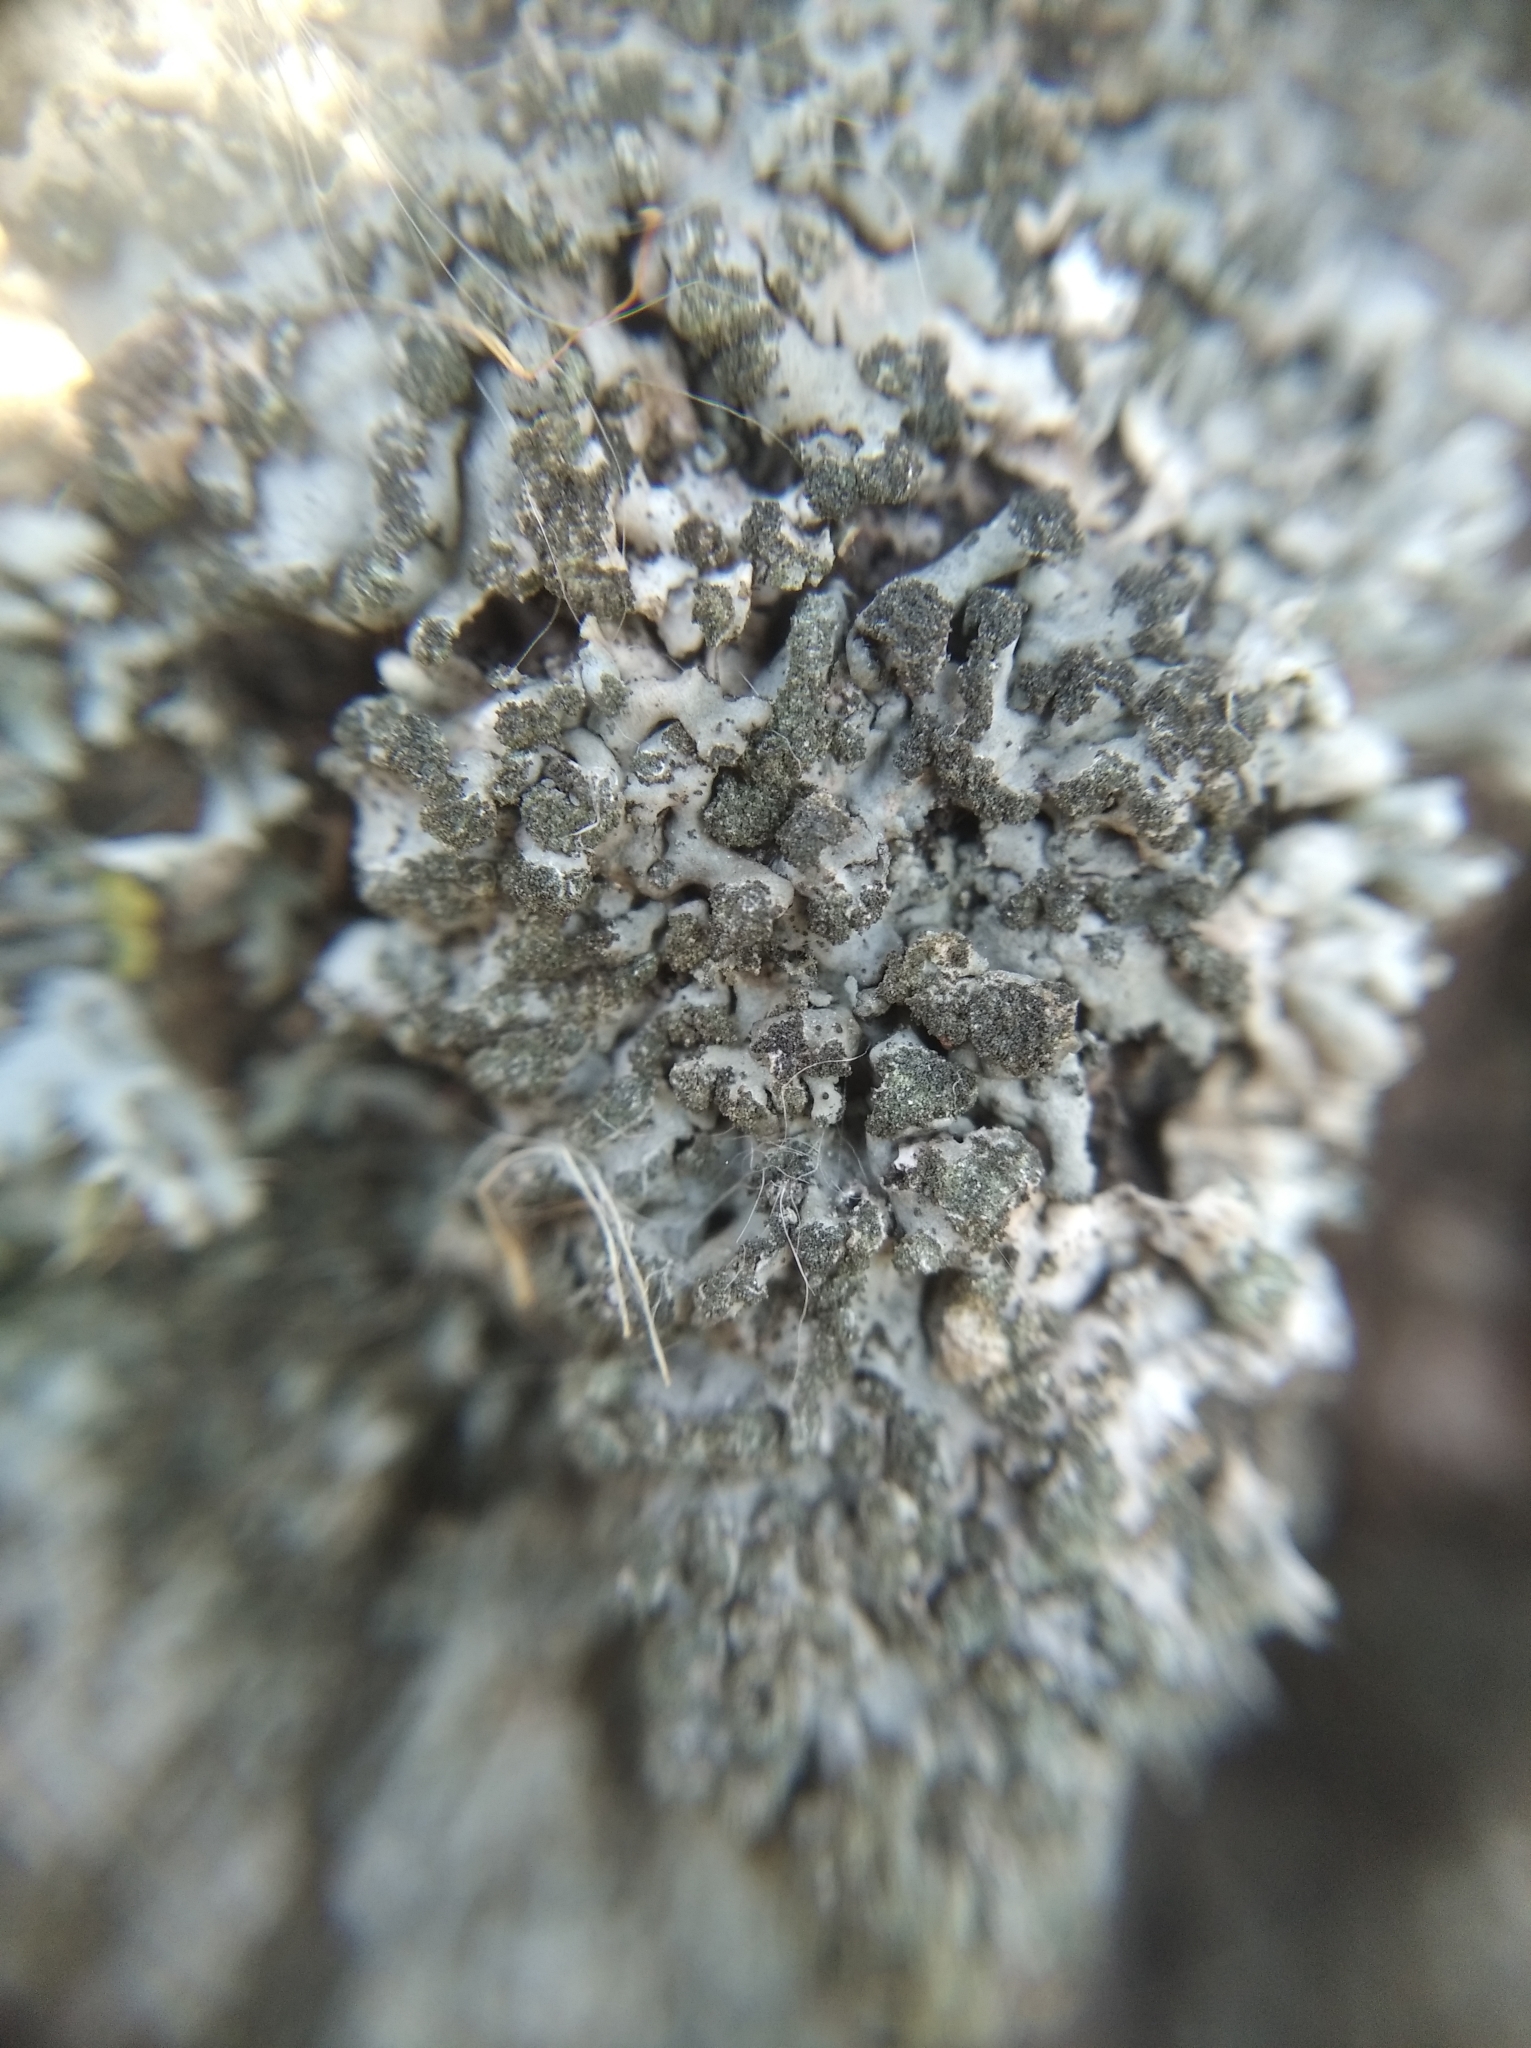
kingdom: Fungi
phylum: Ascomycota
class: Lecanoromycetes
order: Caliciales
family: Physciaceae
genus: Phaeophyscia
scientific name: Phaeophyscia orbicularis
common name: Mealy shadow lichen
